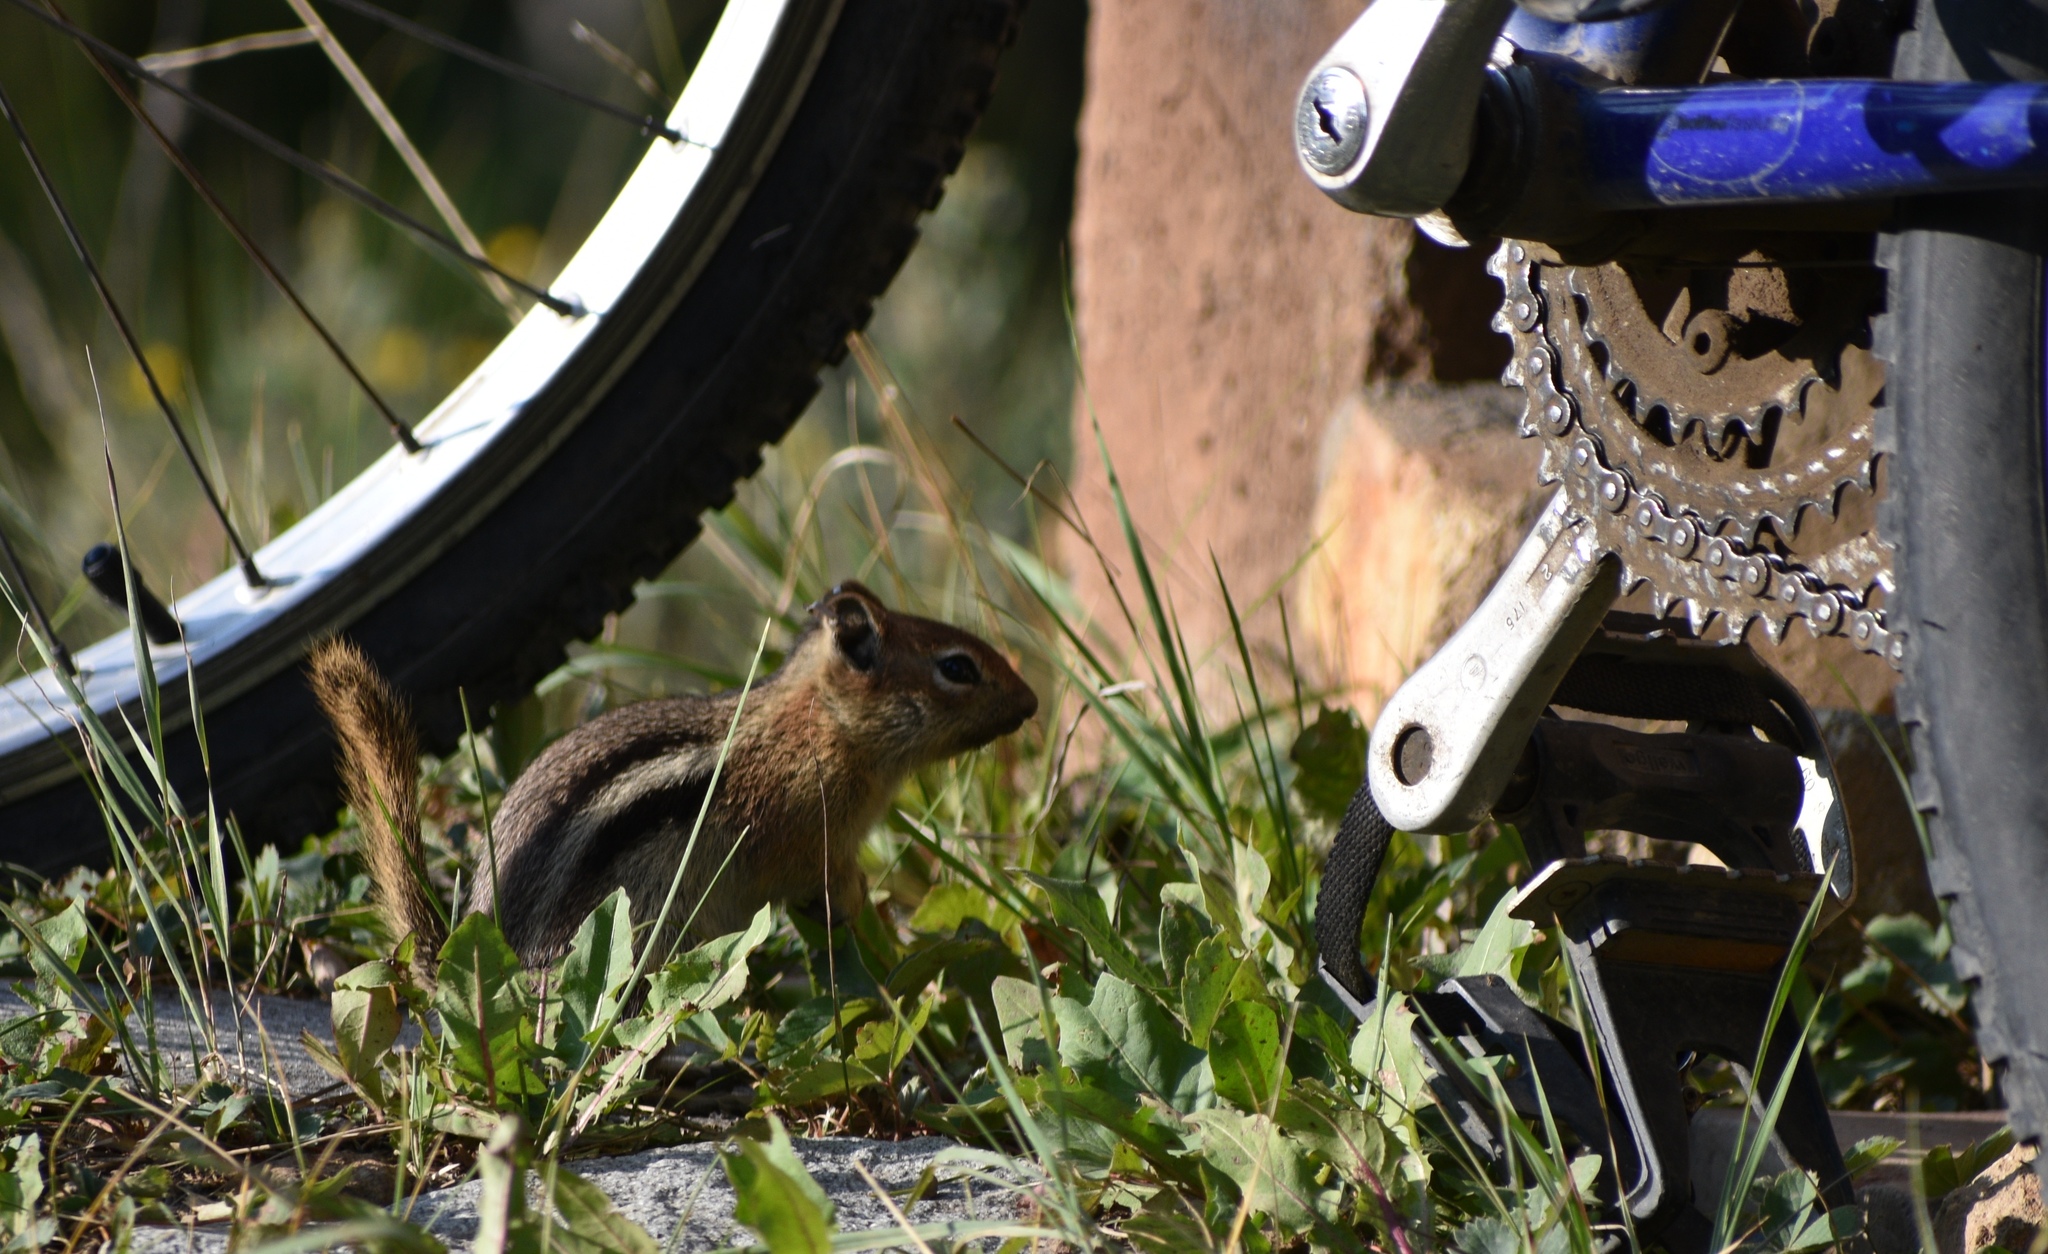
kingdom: Animalia
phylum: Chordata
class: Mammalia
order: Rodentia
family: Sciuridae
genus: Callospermophilus
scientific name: Callospermophilus lateralis
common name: Golden-mantled ground squirrel
